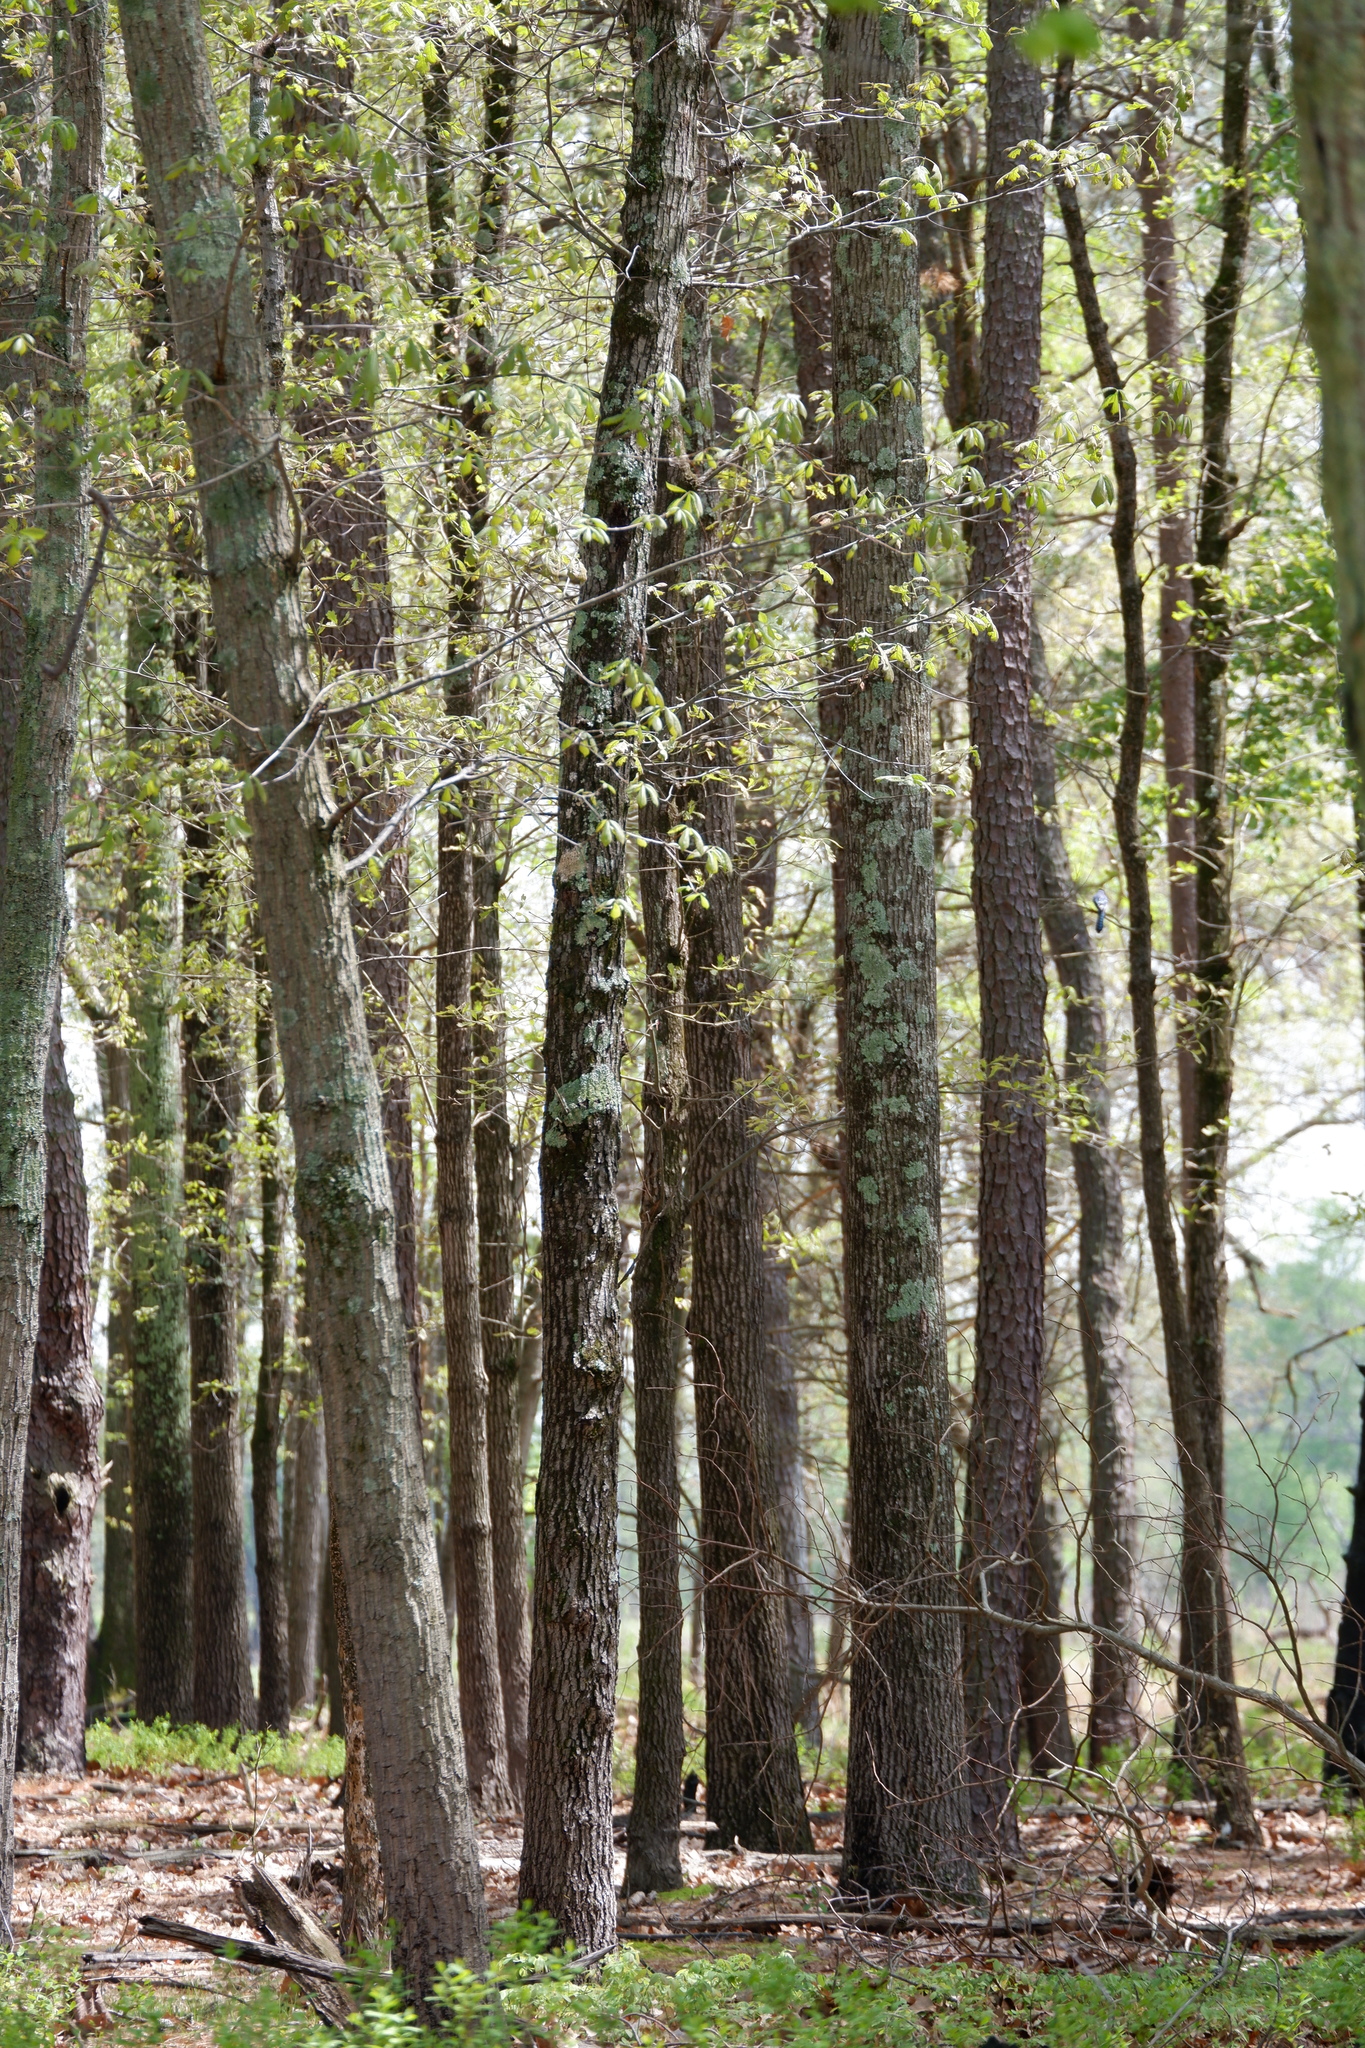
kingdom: Animalia
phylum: Chordata
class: Aves
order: Passeriformes
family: Corvidae
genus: Cyanocitta
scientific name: Cyanocitta cristata
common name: Blue jay
